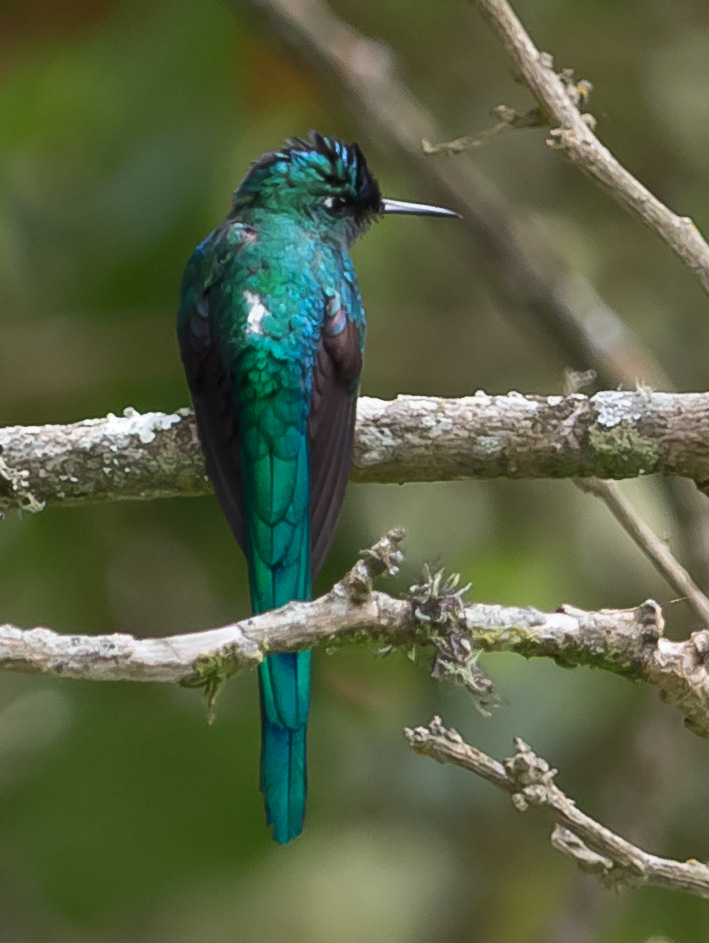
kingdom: Animalia
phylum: Chordata
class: Aves
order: Apodiformes
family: Trochilidae
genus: Aglaiocercus
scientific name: Aglaiocercus kingii
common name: Long-tailed sylph
